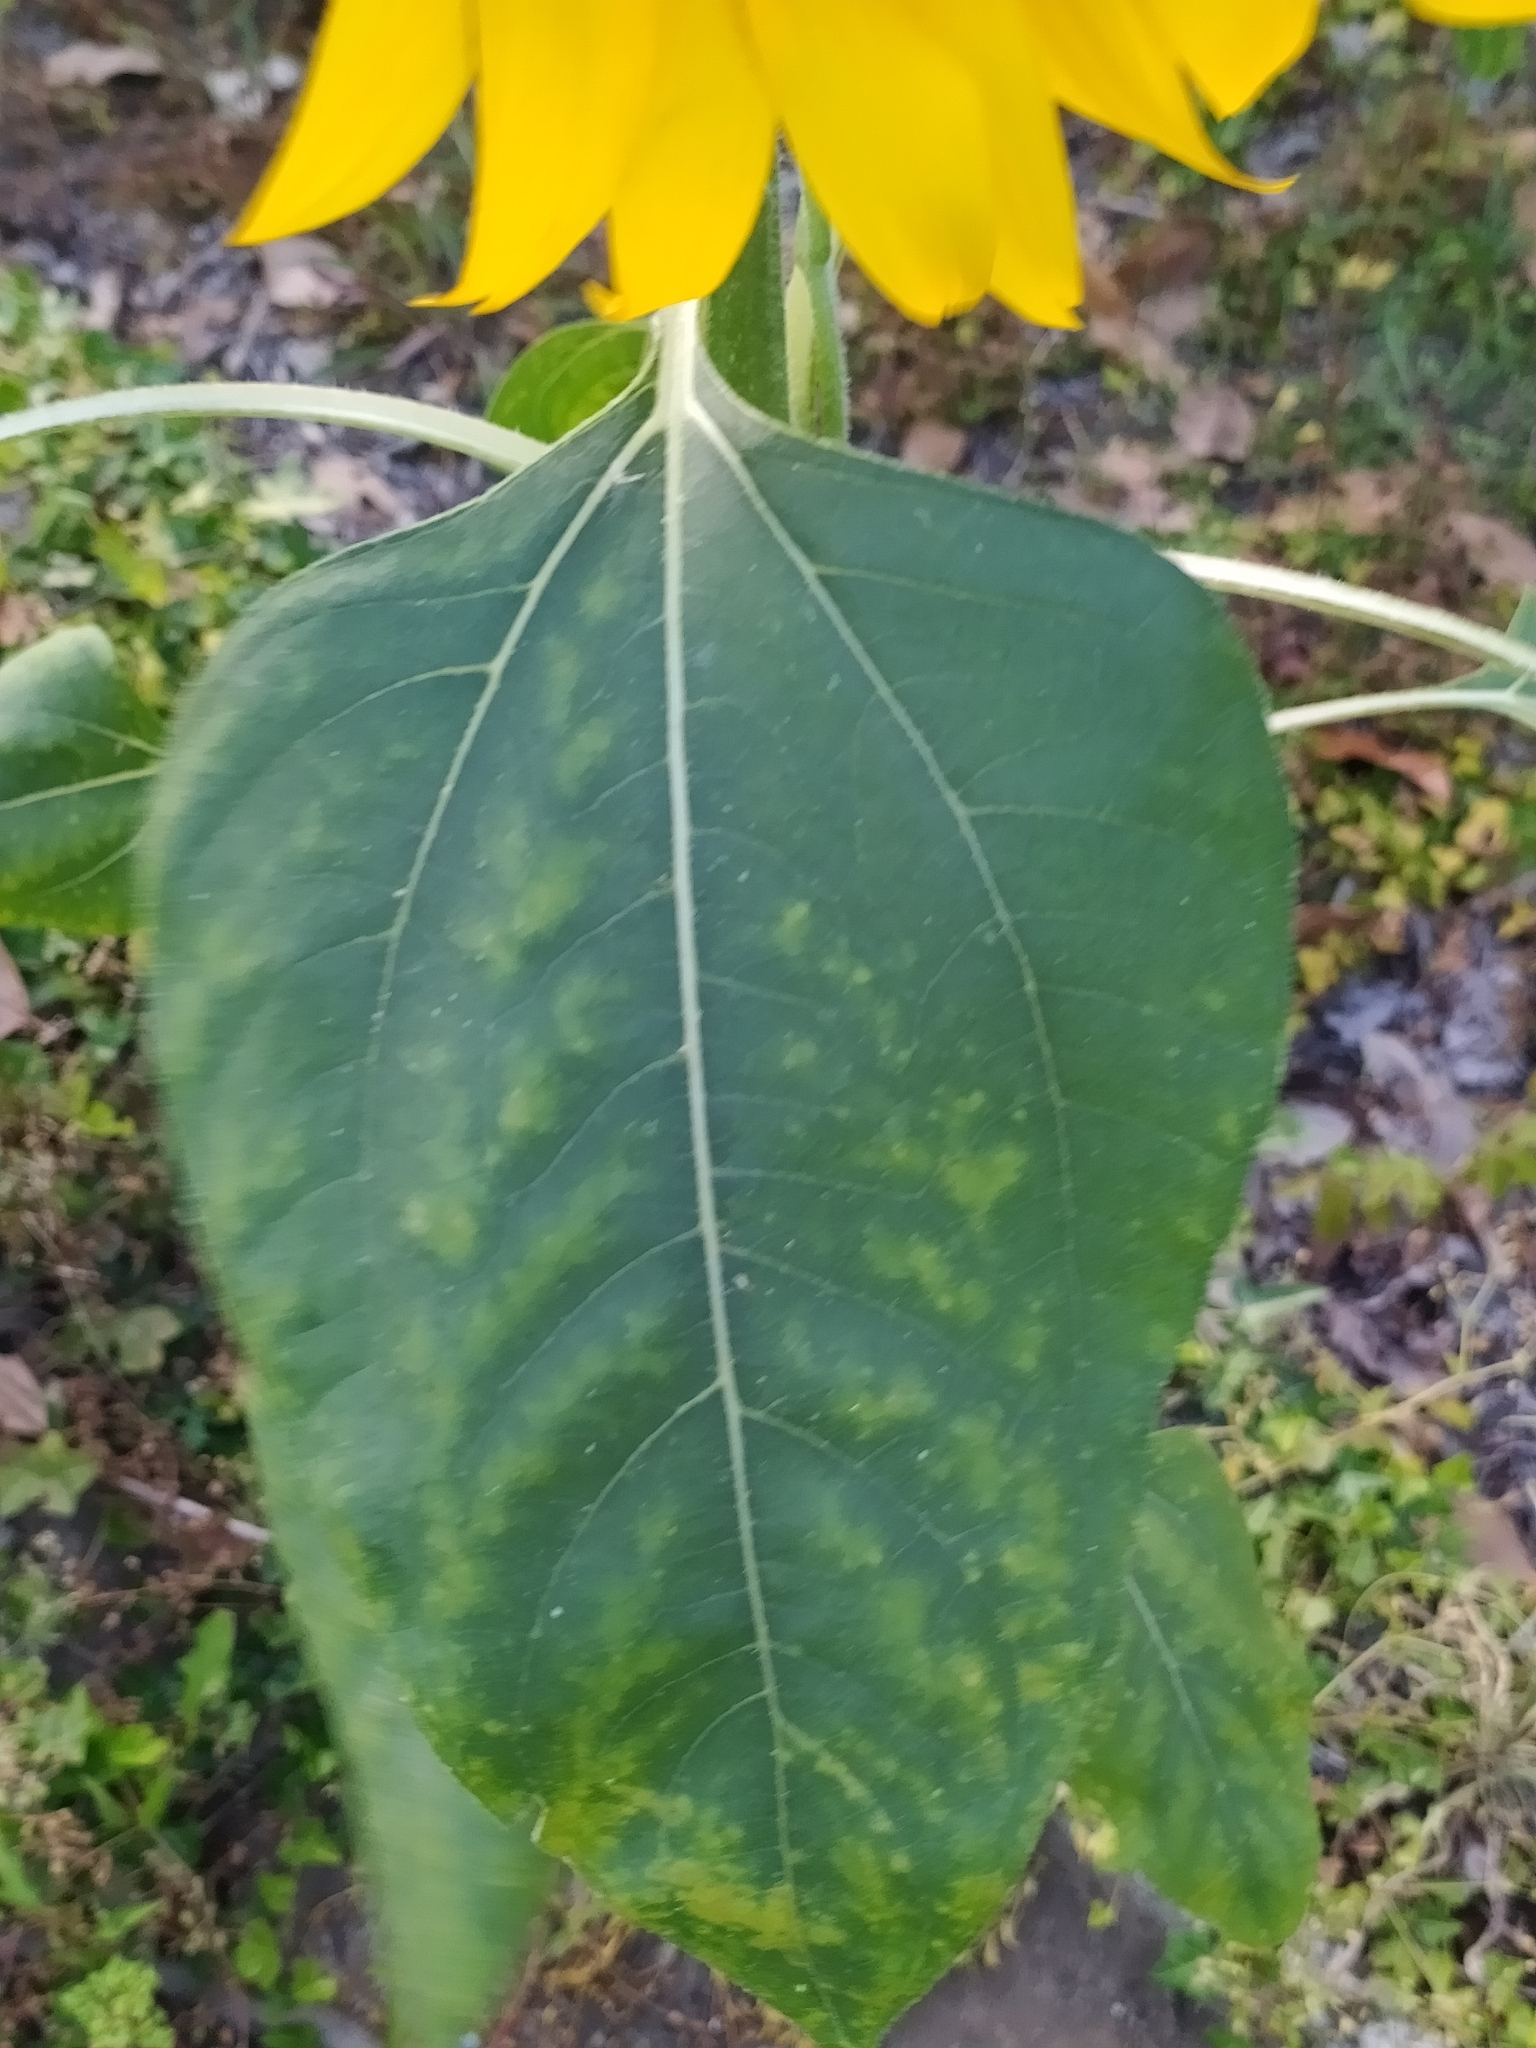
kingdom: Plantae
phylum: Tracheophyta
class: Magnoliopsida
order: Asterales
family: Asteraceae
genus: Helianthus
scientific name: Helianthus annuus
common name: Sunflower
